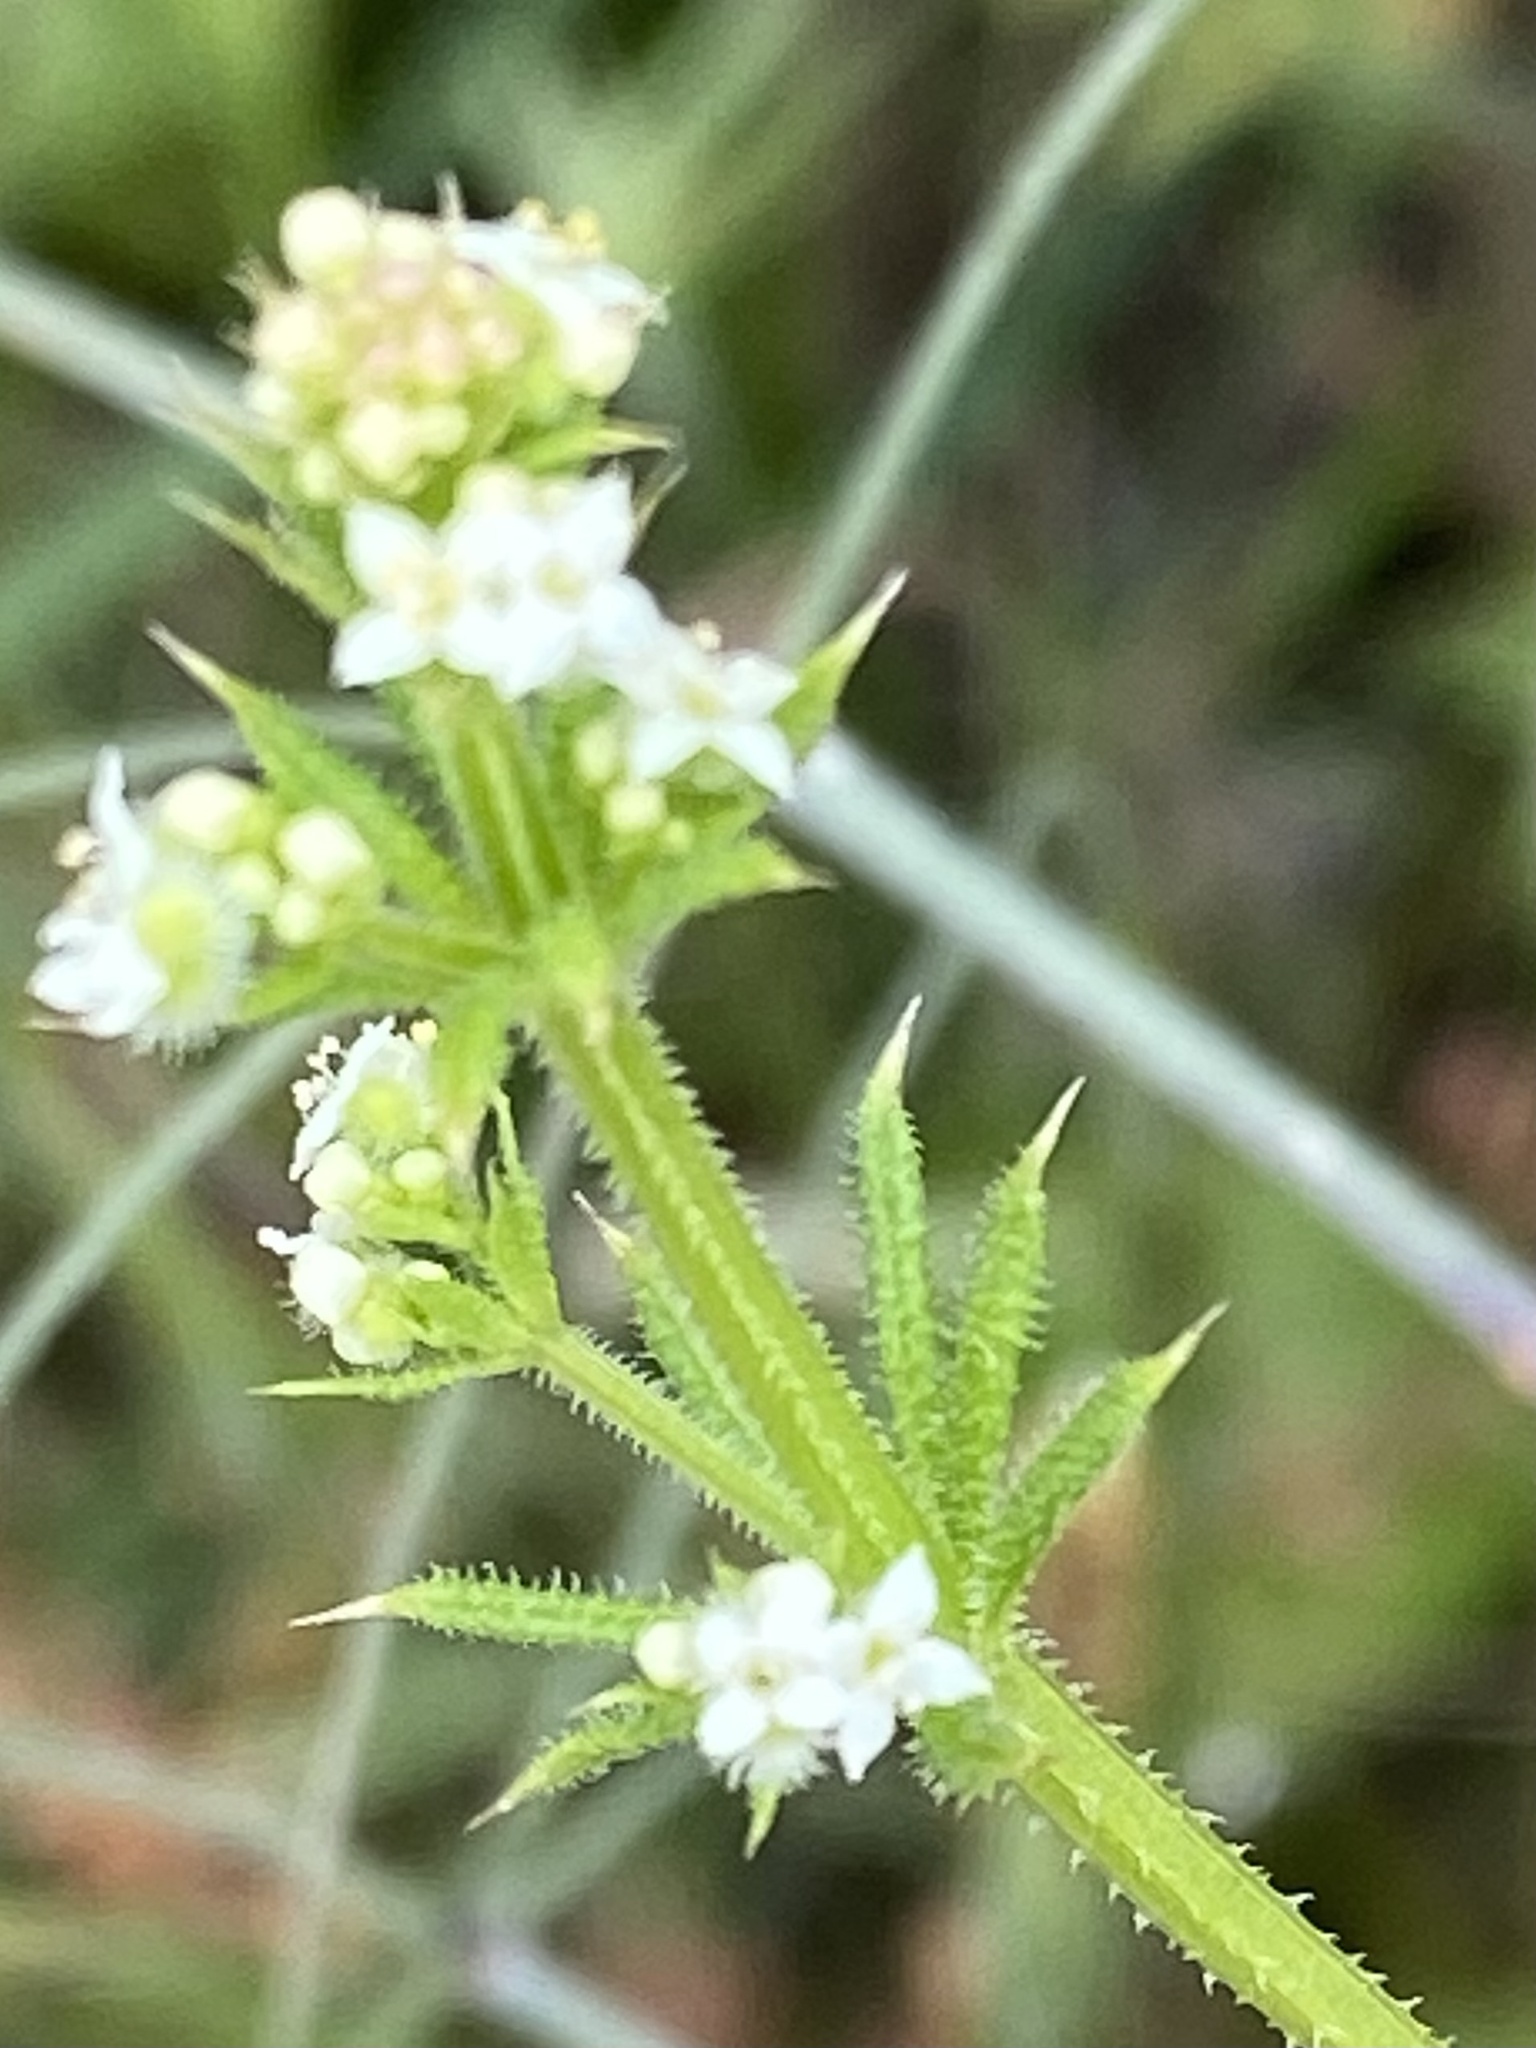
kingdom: Plantae
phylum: Tracheophyta
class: Magnoliopsida
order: Gentianales
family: Rubiaceae
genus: Galium
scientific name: Galium aparine
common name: Cleavers
